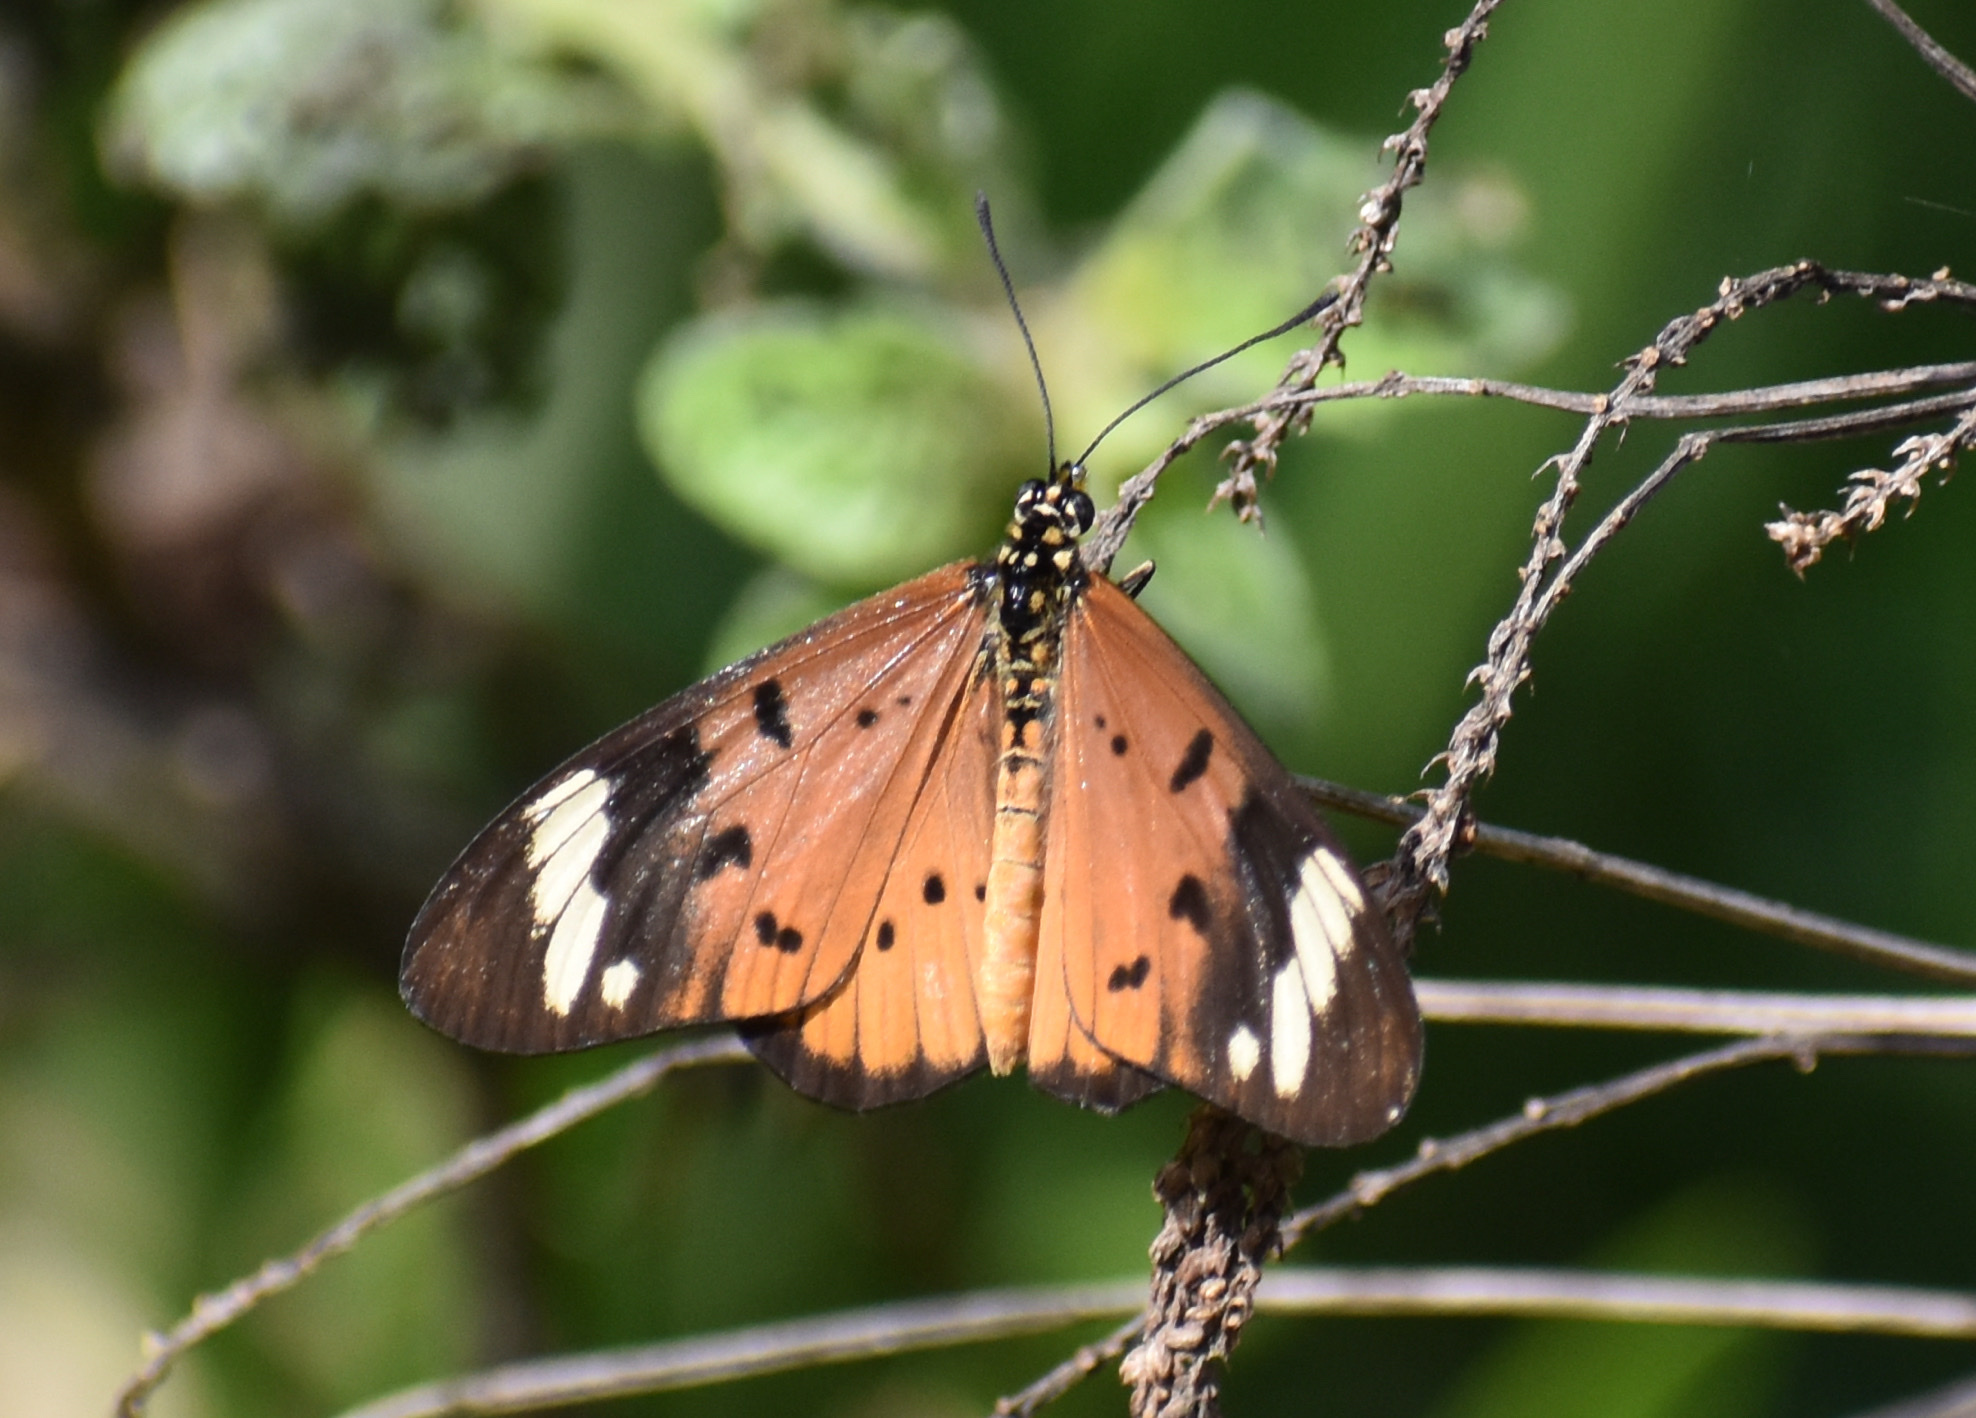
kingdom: Animalia
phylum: Arthropoda
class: Insecta
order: Lepidoptera
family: Nymphalidae
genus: Acraea
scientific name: Acraea Telchinia encedon
